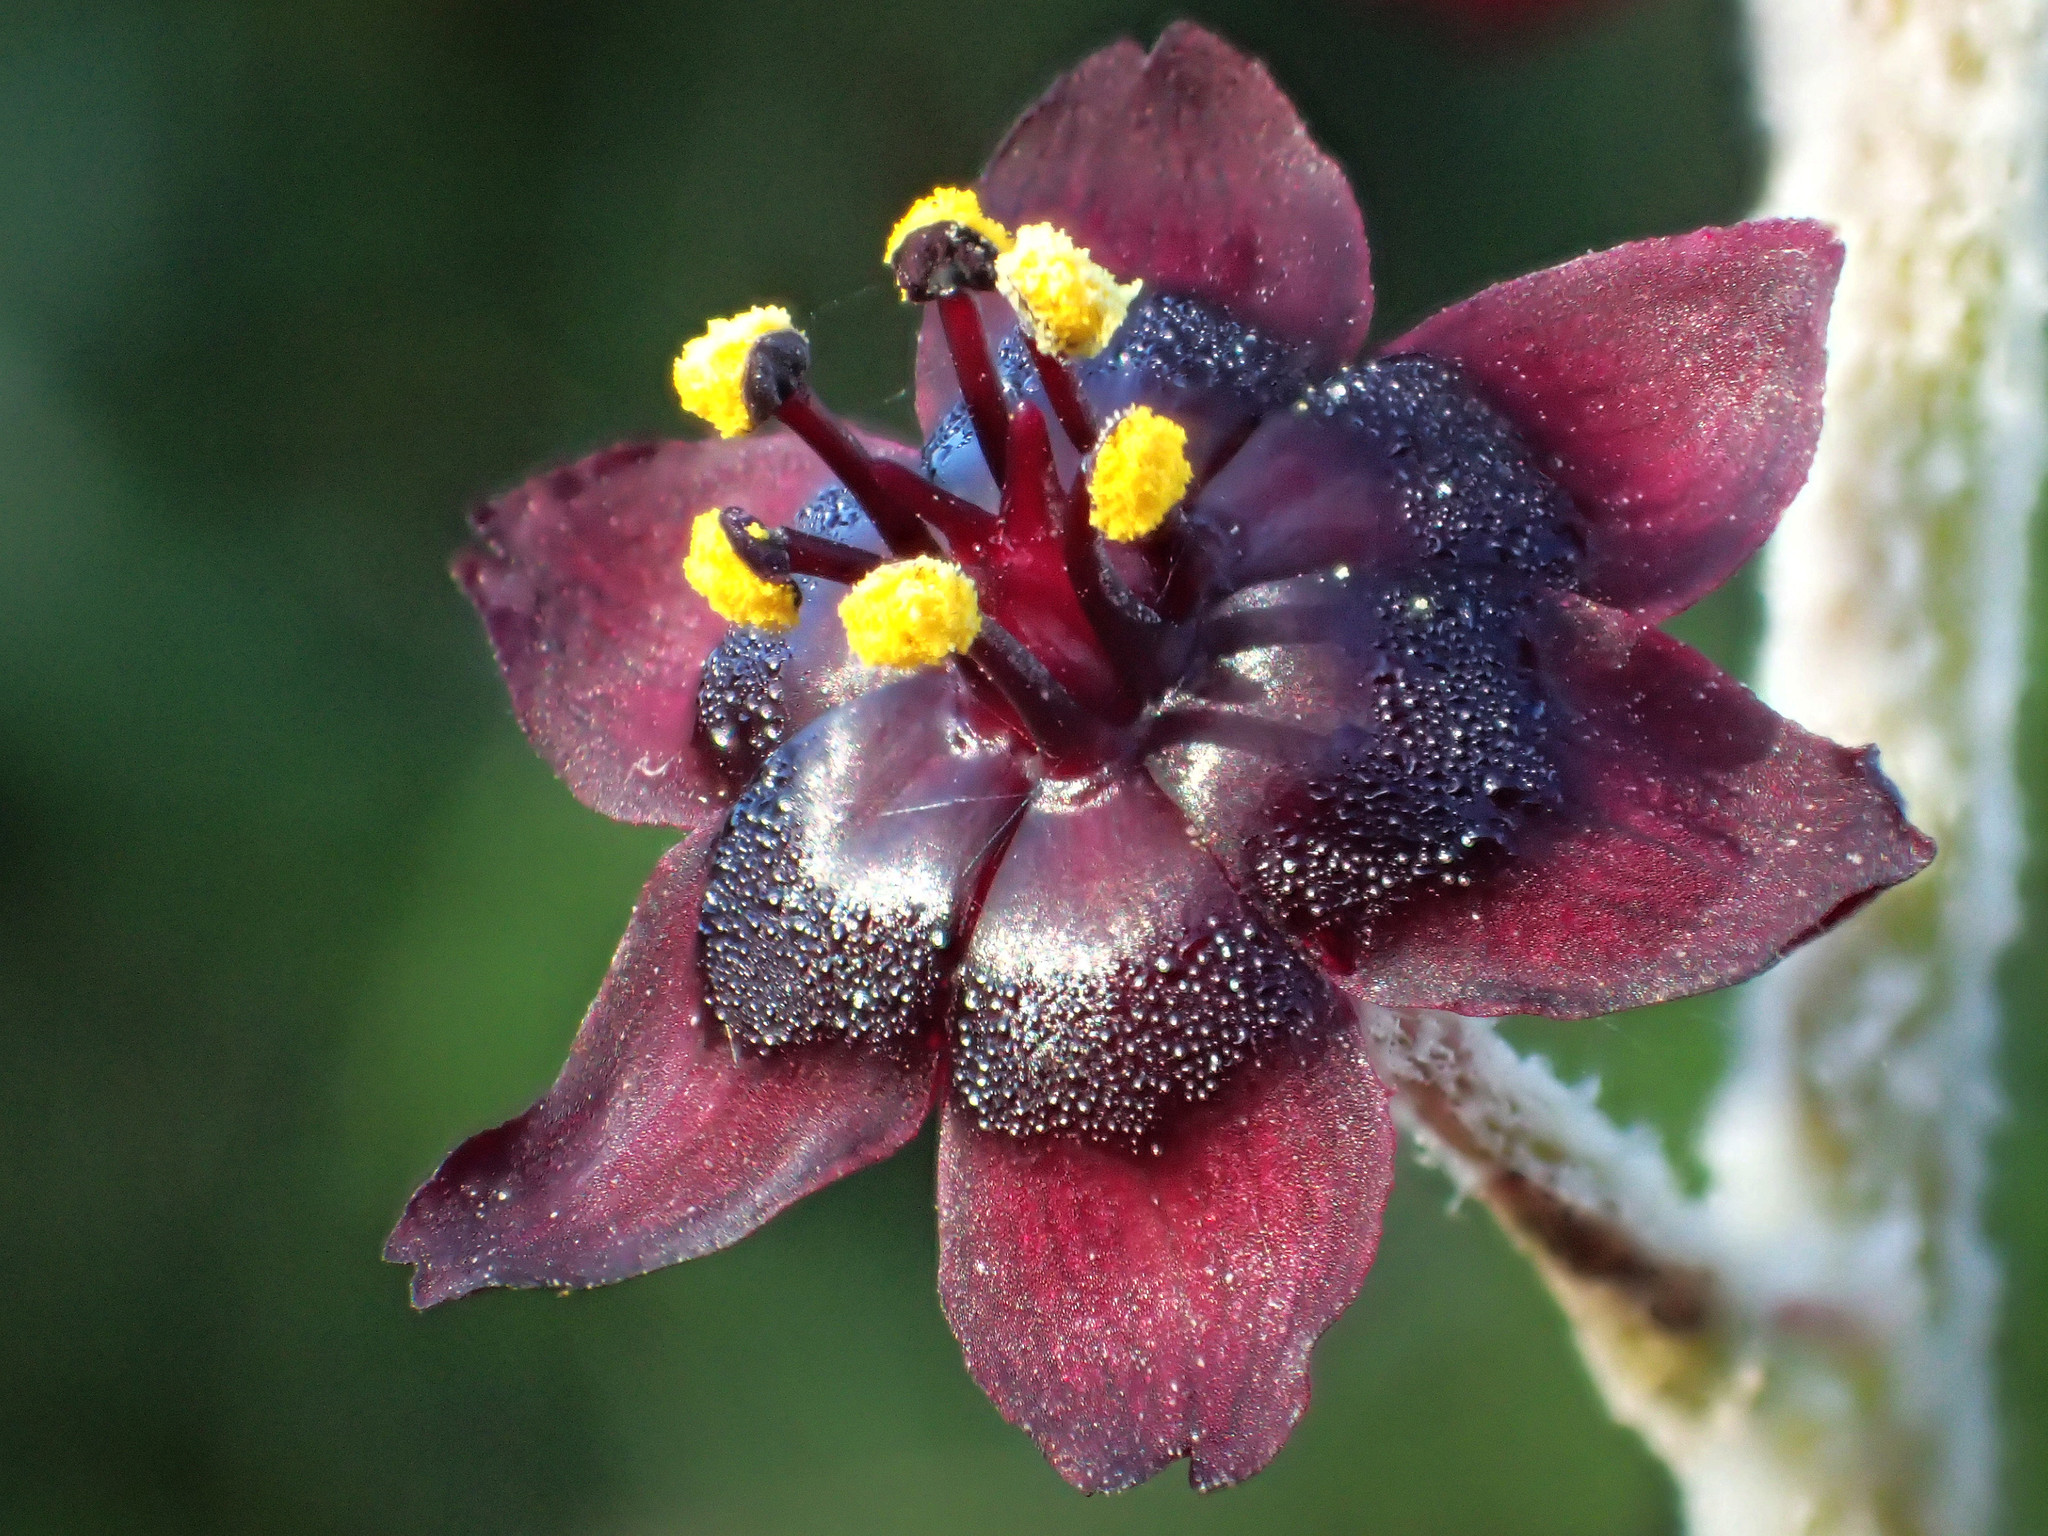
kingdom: Plantae
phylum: Tracheophyta
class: Liliopsida
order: Liliales
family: Melanthiaceae
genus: Veratrum
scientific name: Veratrum formosanum
